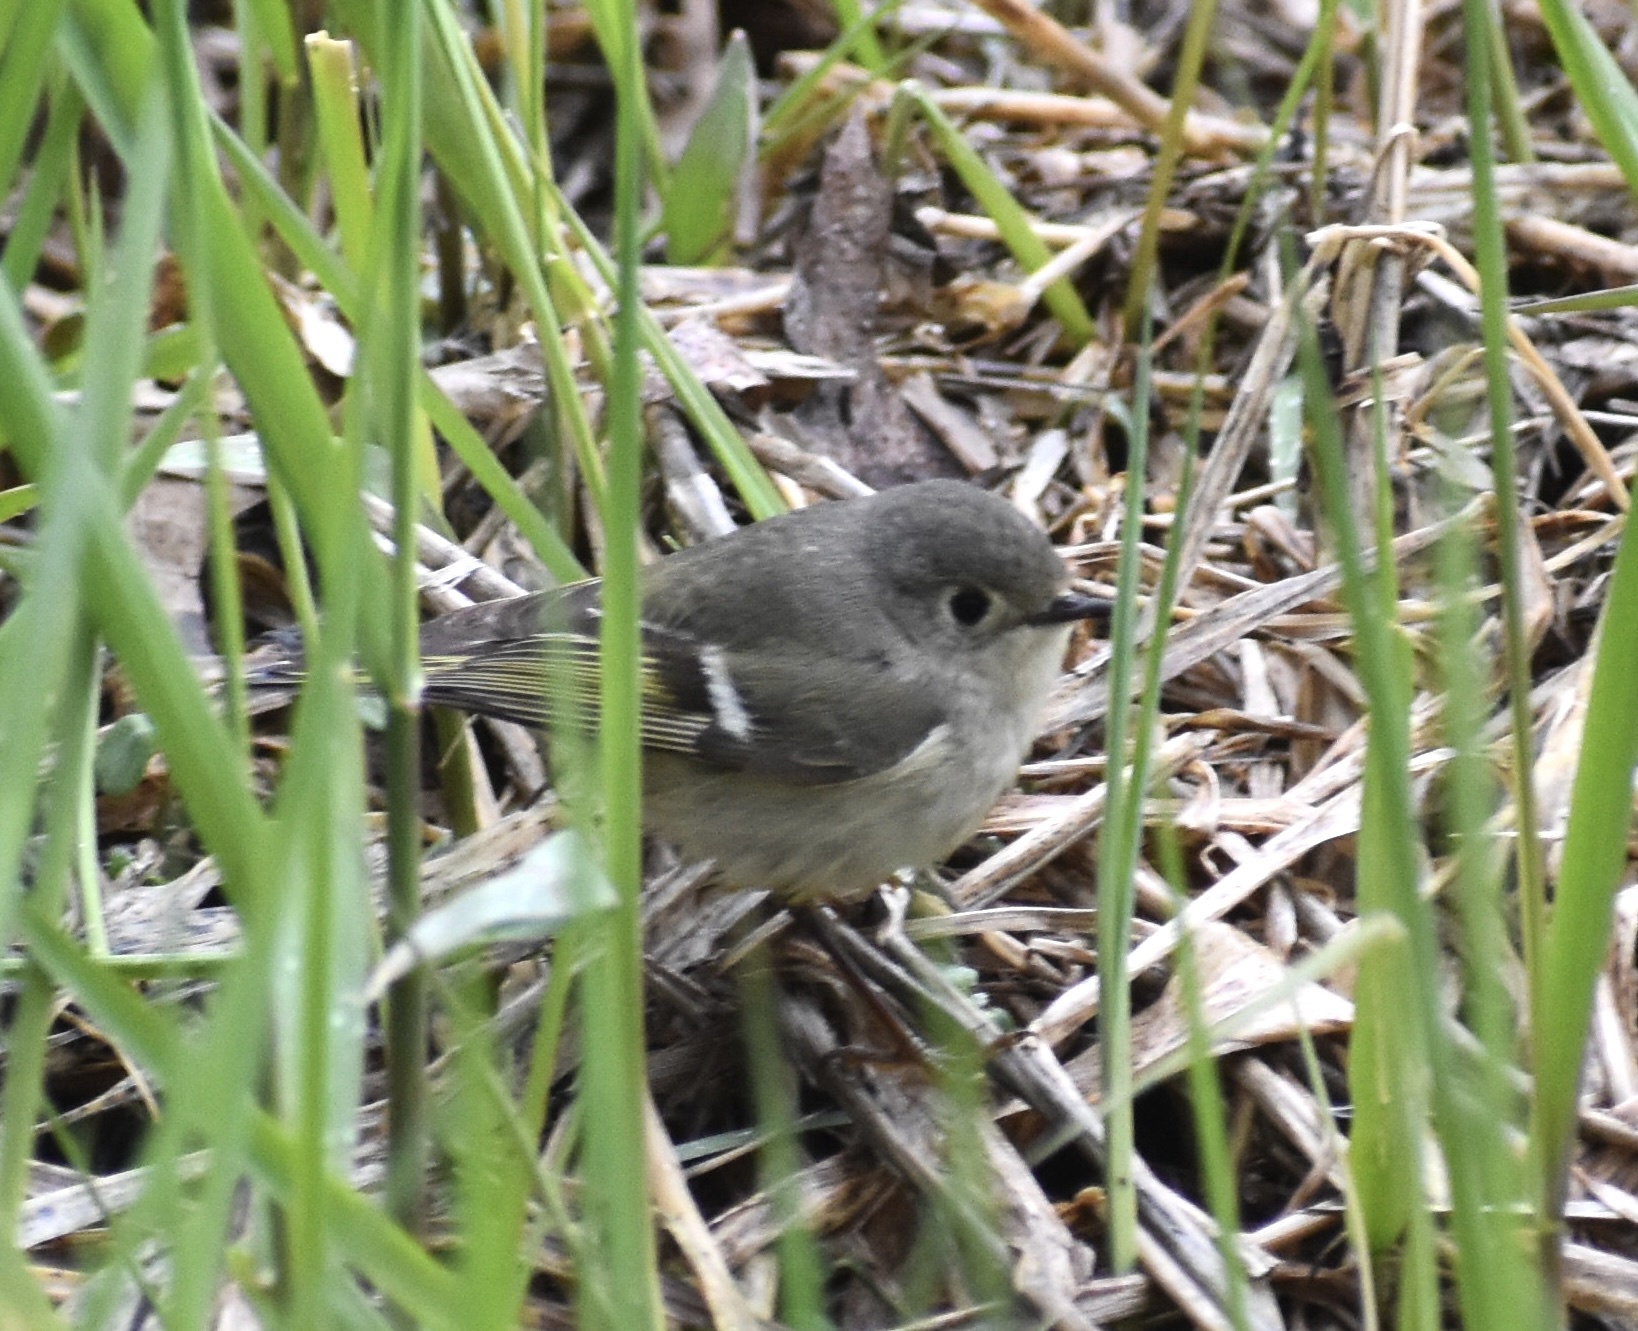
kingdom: Animalia
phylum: Chordata
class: Aves
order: Passeriformes
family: Regulidae
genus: Regulus
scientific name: Regulus calendula
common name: Ruby-crowned kinglet
